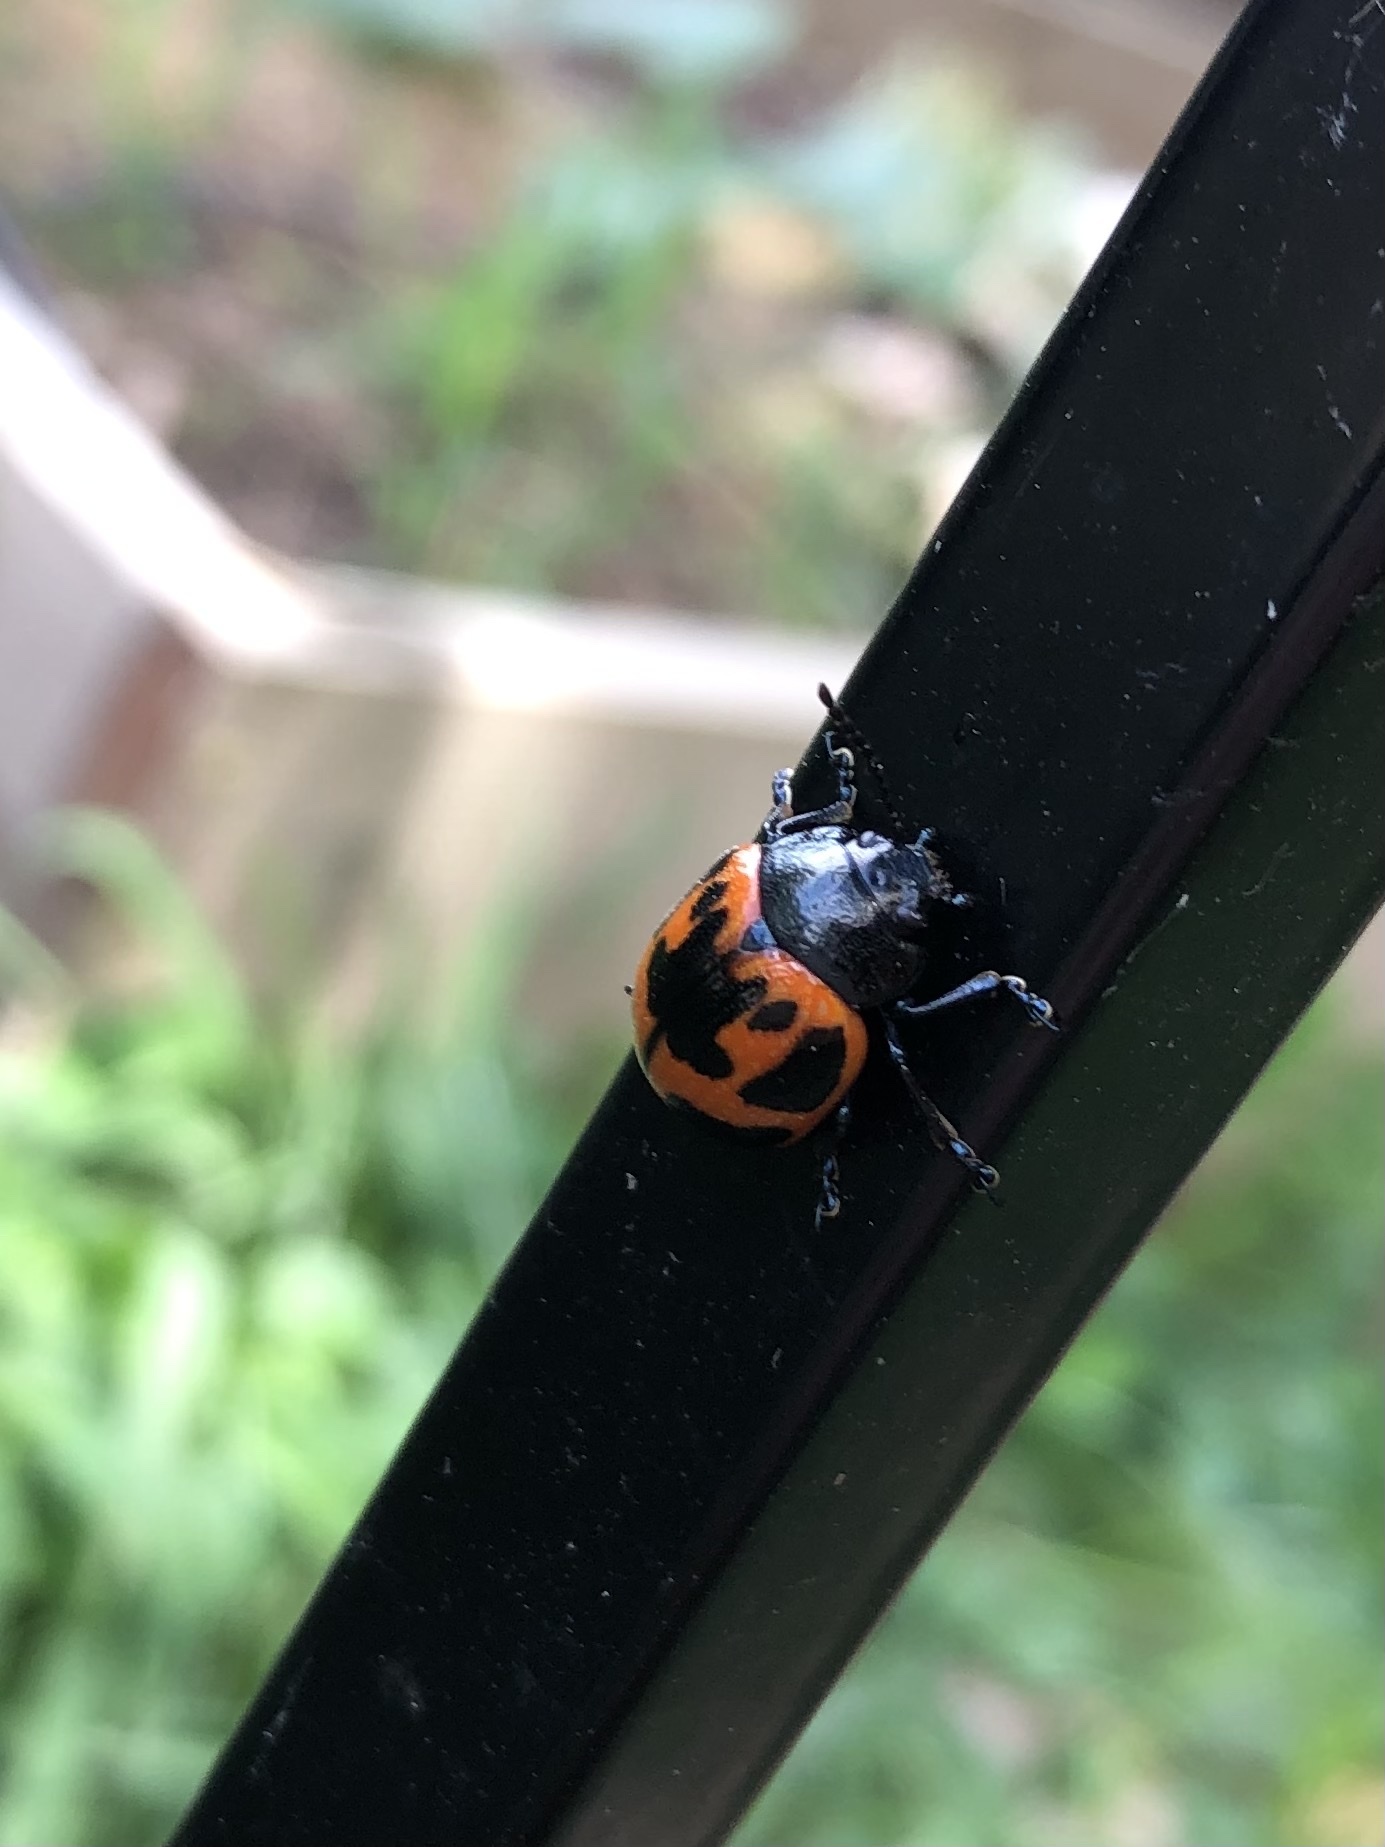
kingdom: Animalia
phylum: Arthropoda
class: Insecta
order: Coleoptera
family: Chrysomelidae
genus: Labidomera
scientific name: Labidomera clivicollis
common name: Swamp milkweed leaf beetle
